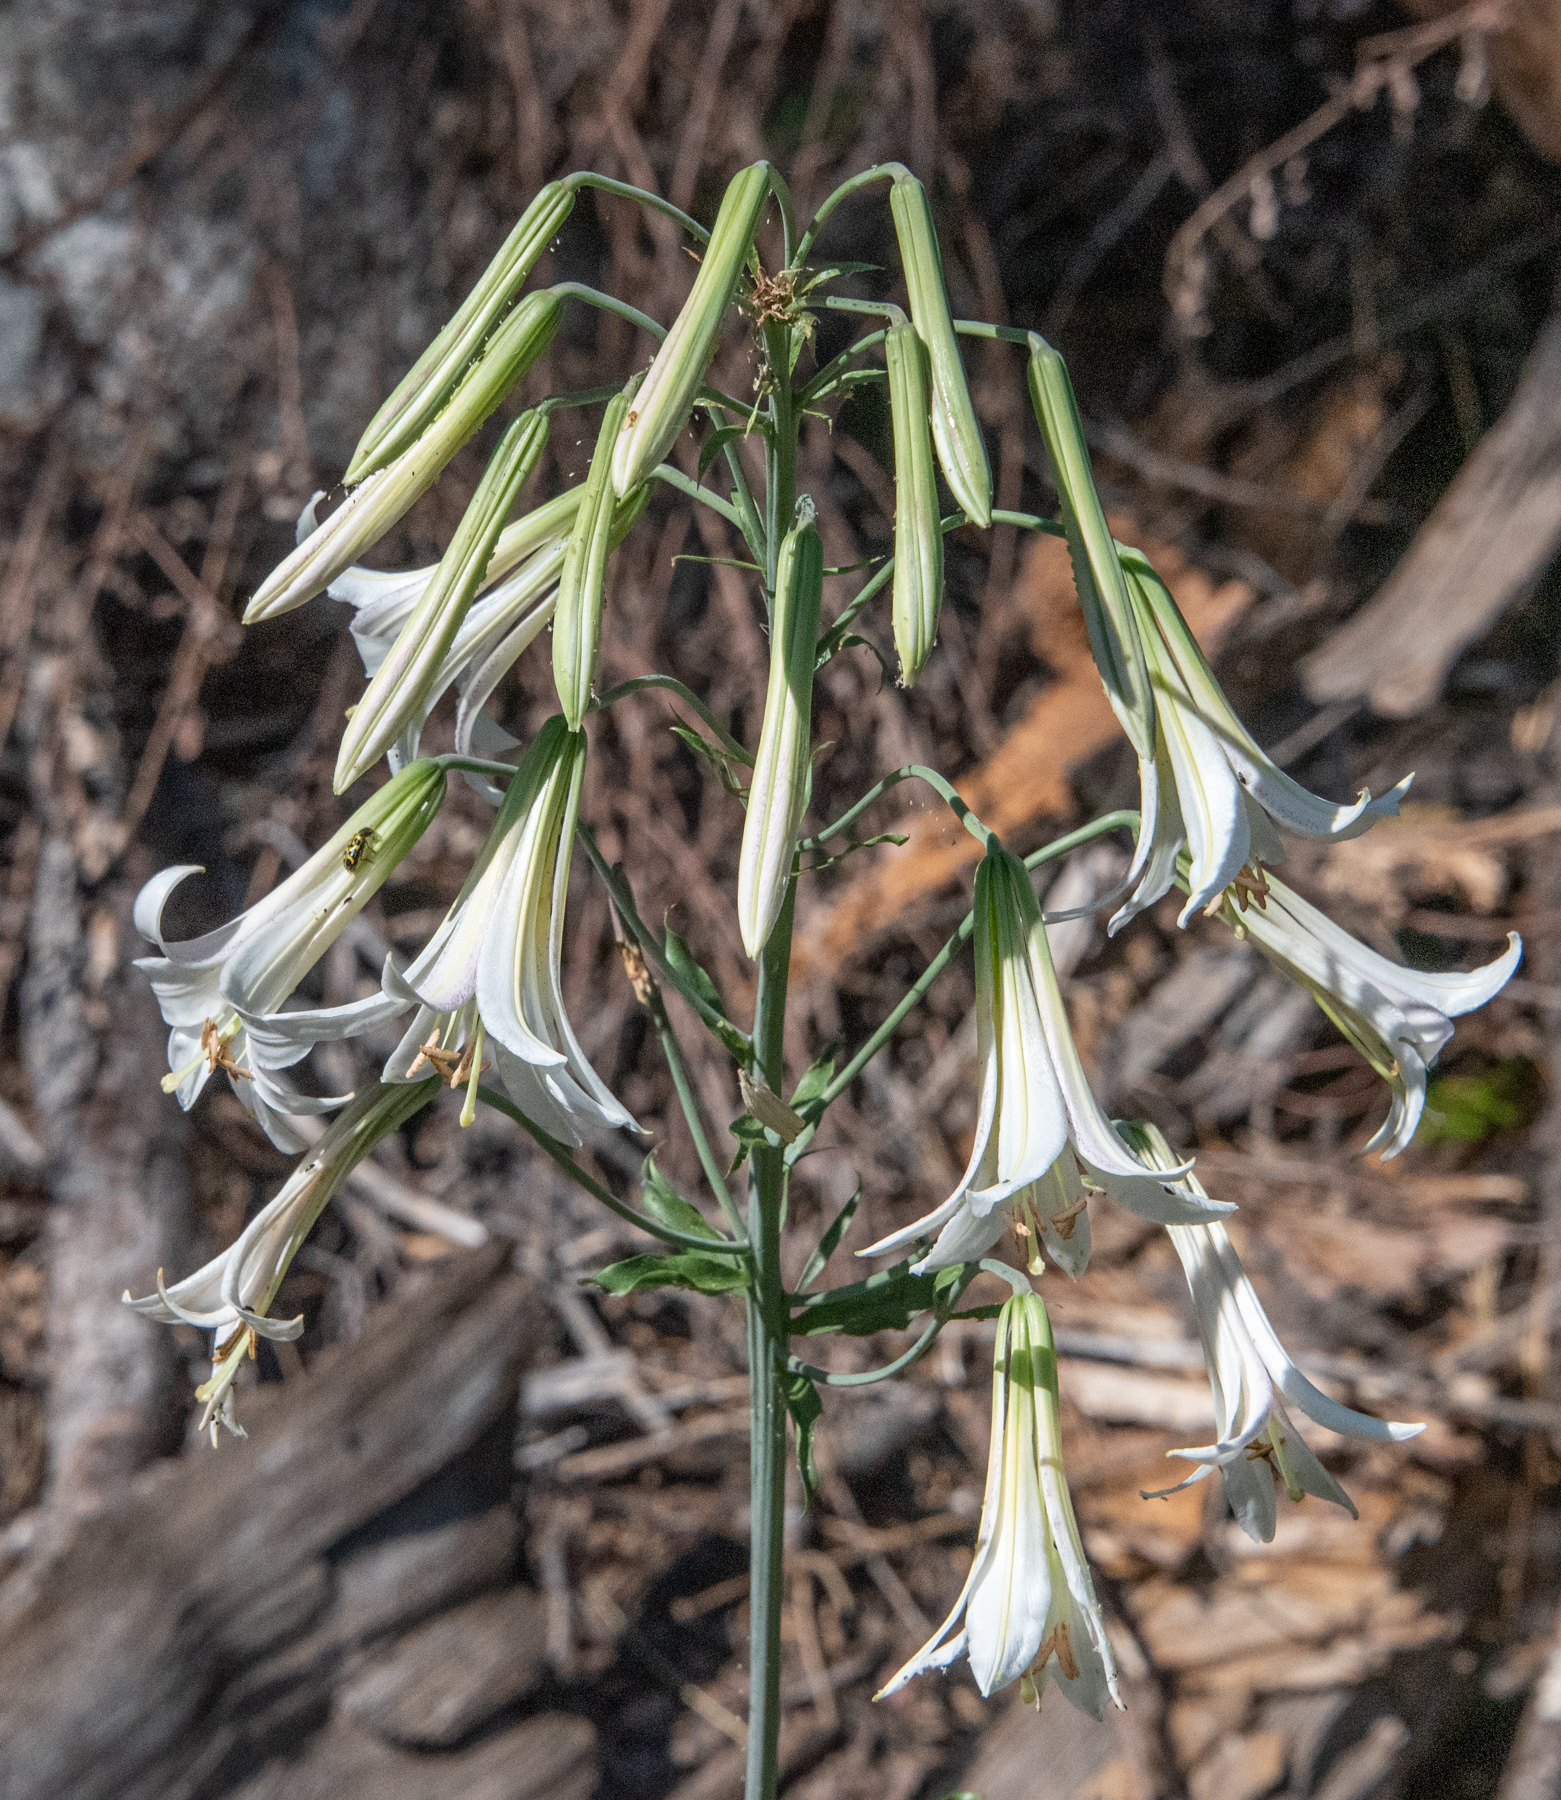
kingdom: Plantae
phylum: Tracheophyta
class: Liliopsida
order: Liliales
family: Liliaceae
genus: Lilium
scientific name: Lilium washingtonianum
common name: Washington lily
